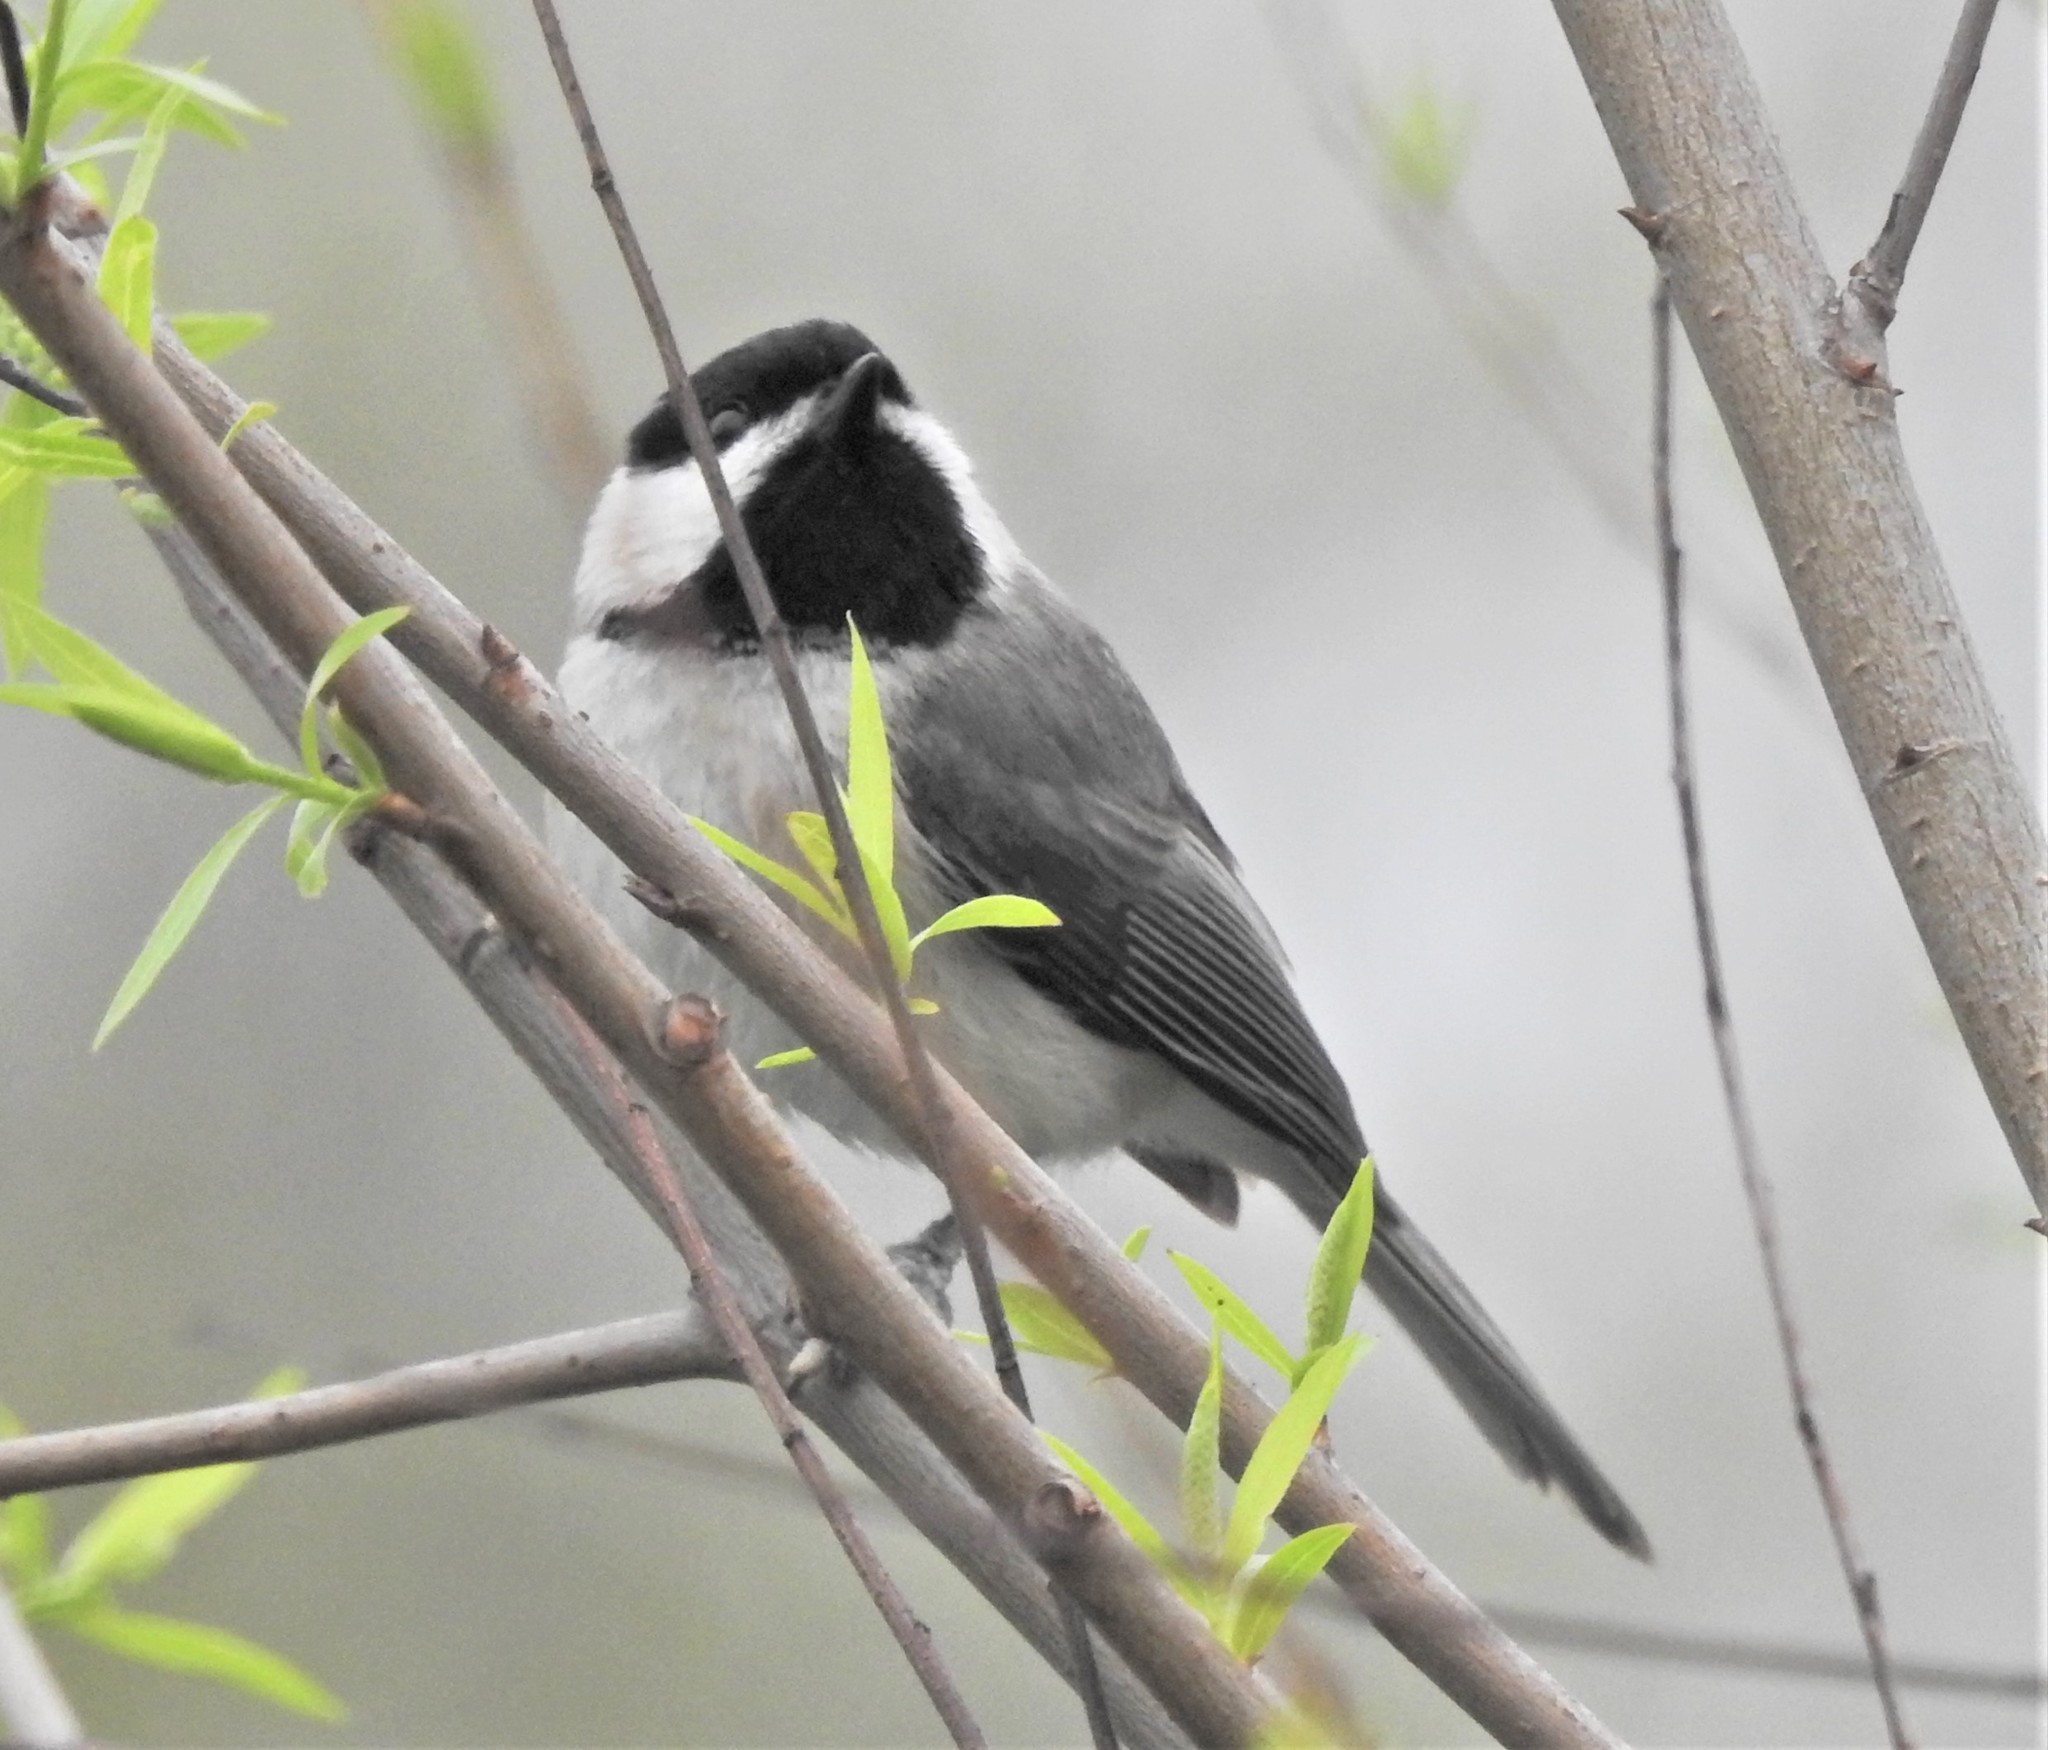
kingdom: Animalia
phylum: Chordata
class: Aves
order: Passeriformes
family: Paridae
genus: Poecile
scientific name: Poecile carolinensis
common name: Carolina chickadee
